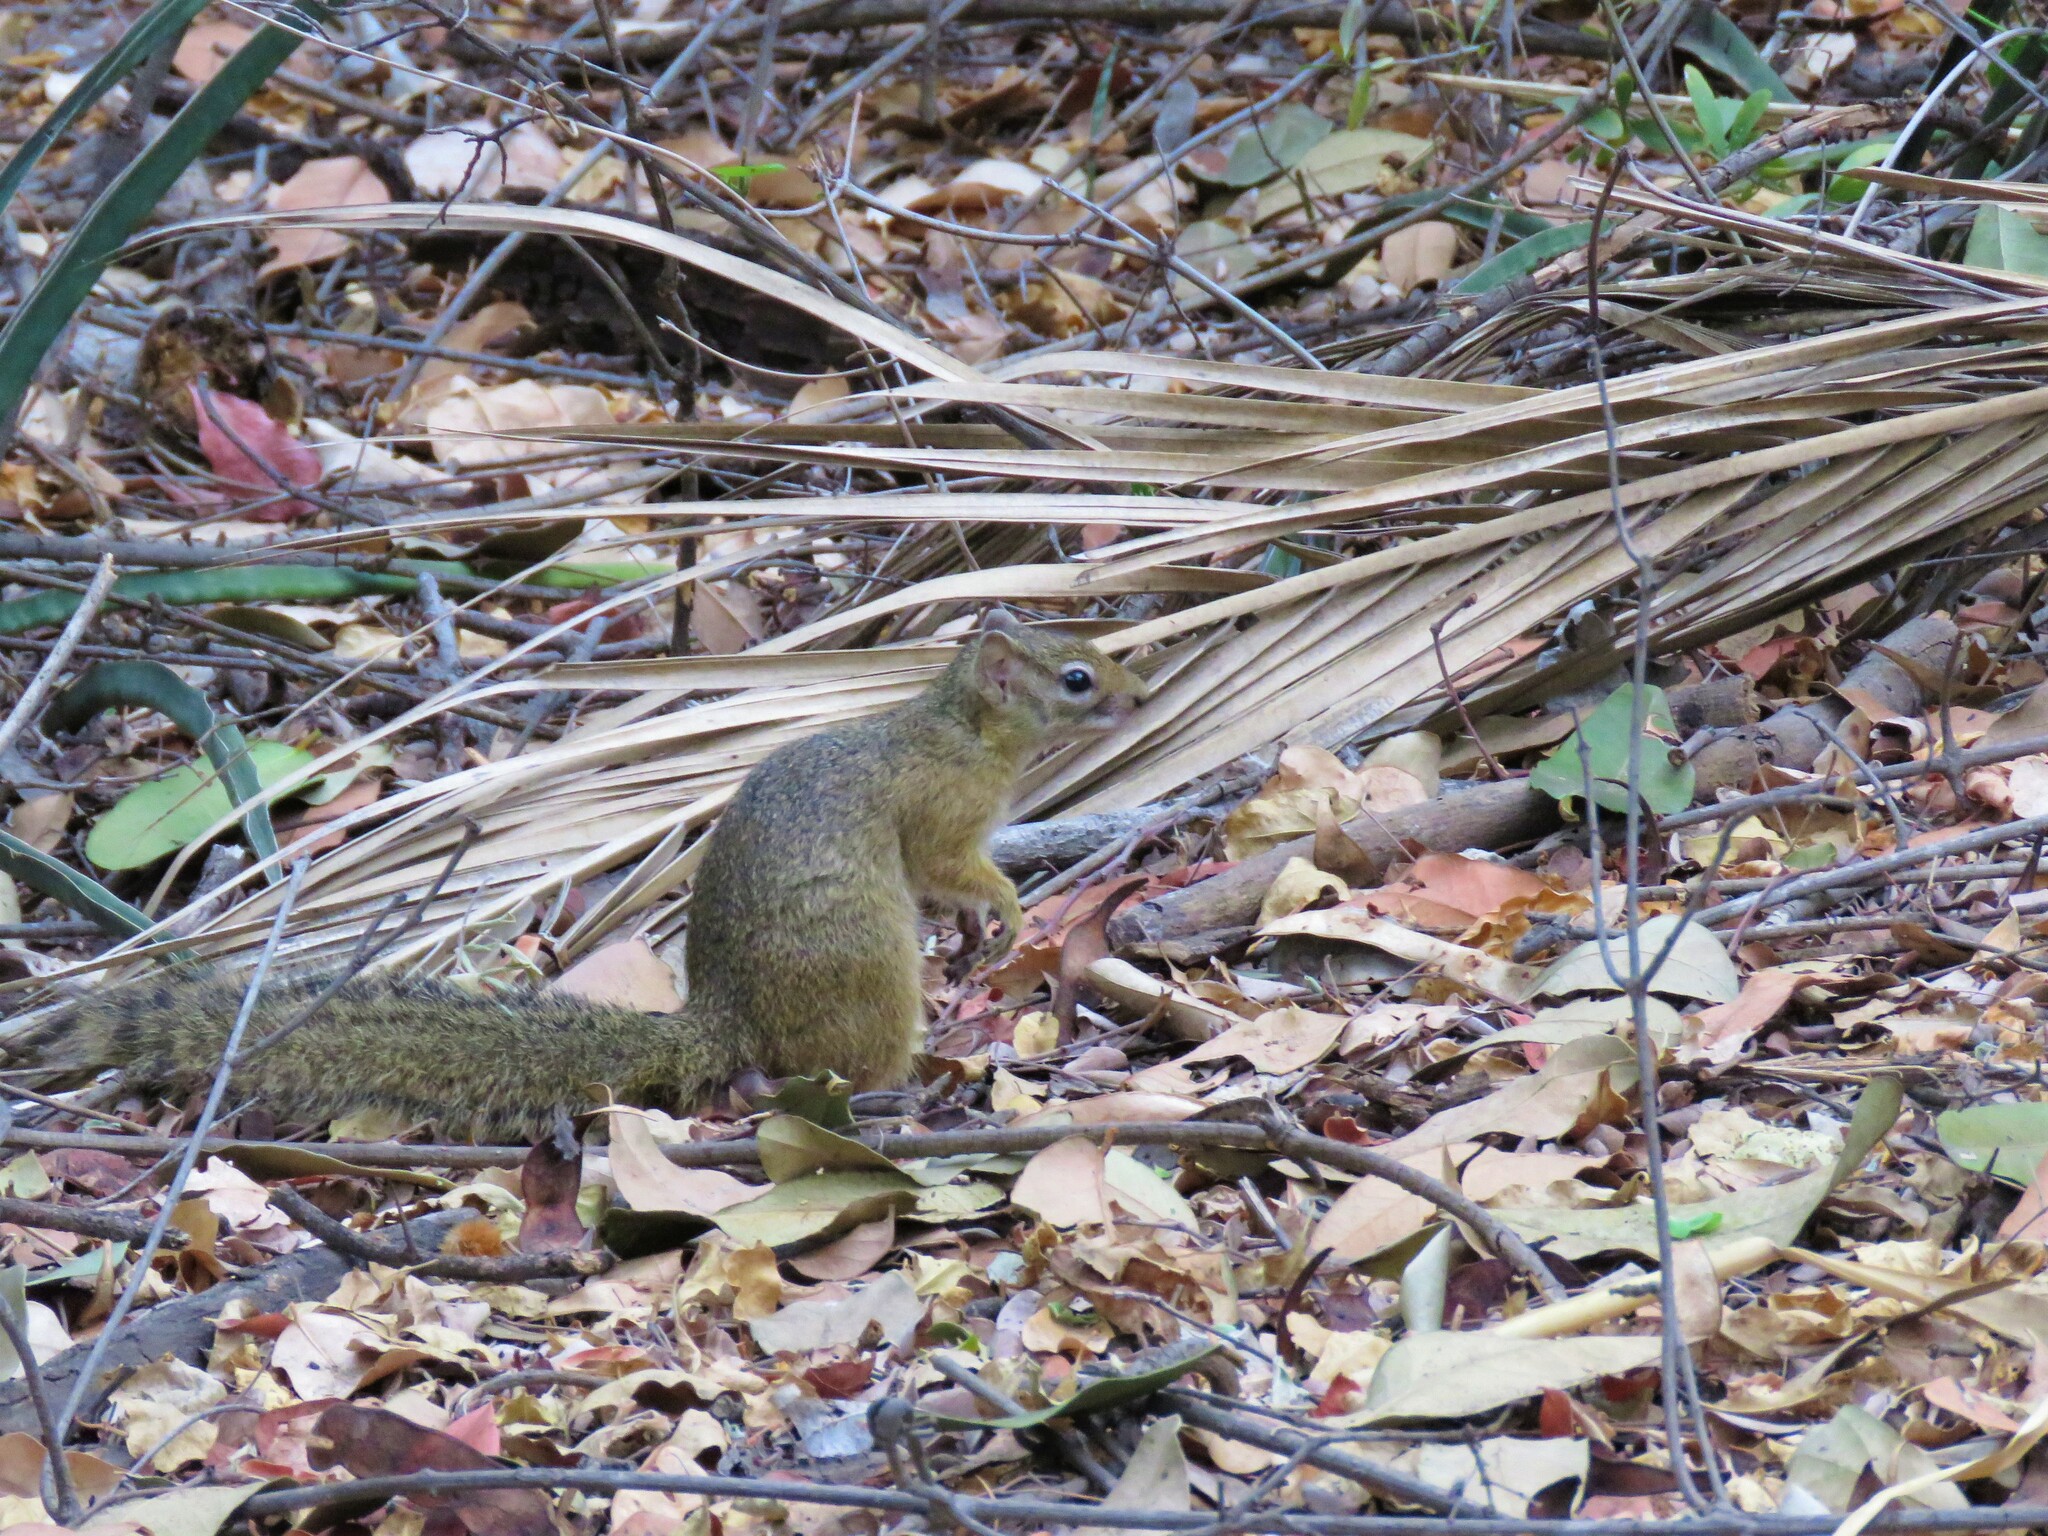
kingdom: Animalia
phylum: Chordata
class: Mammalia
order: Rodentia
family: Sciuridae
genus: Paraxerus
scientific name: Paraxerus cepapi
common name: Smith's bush squirrel
